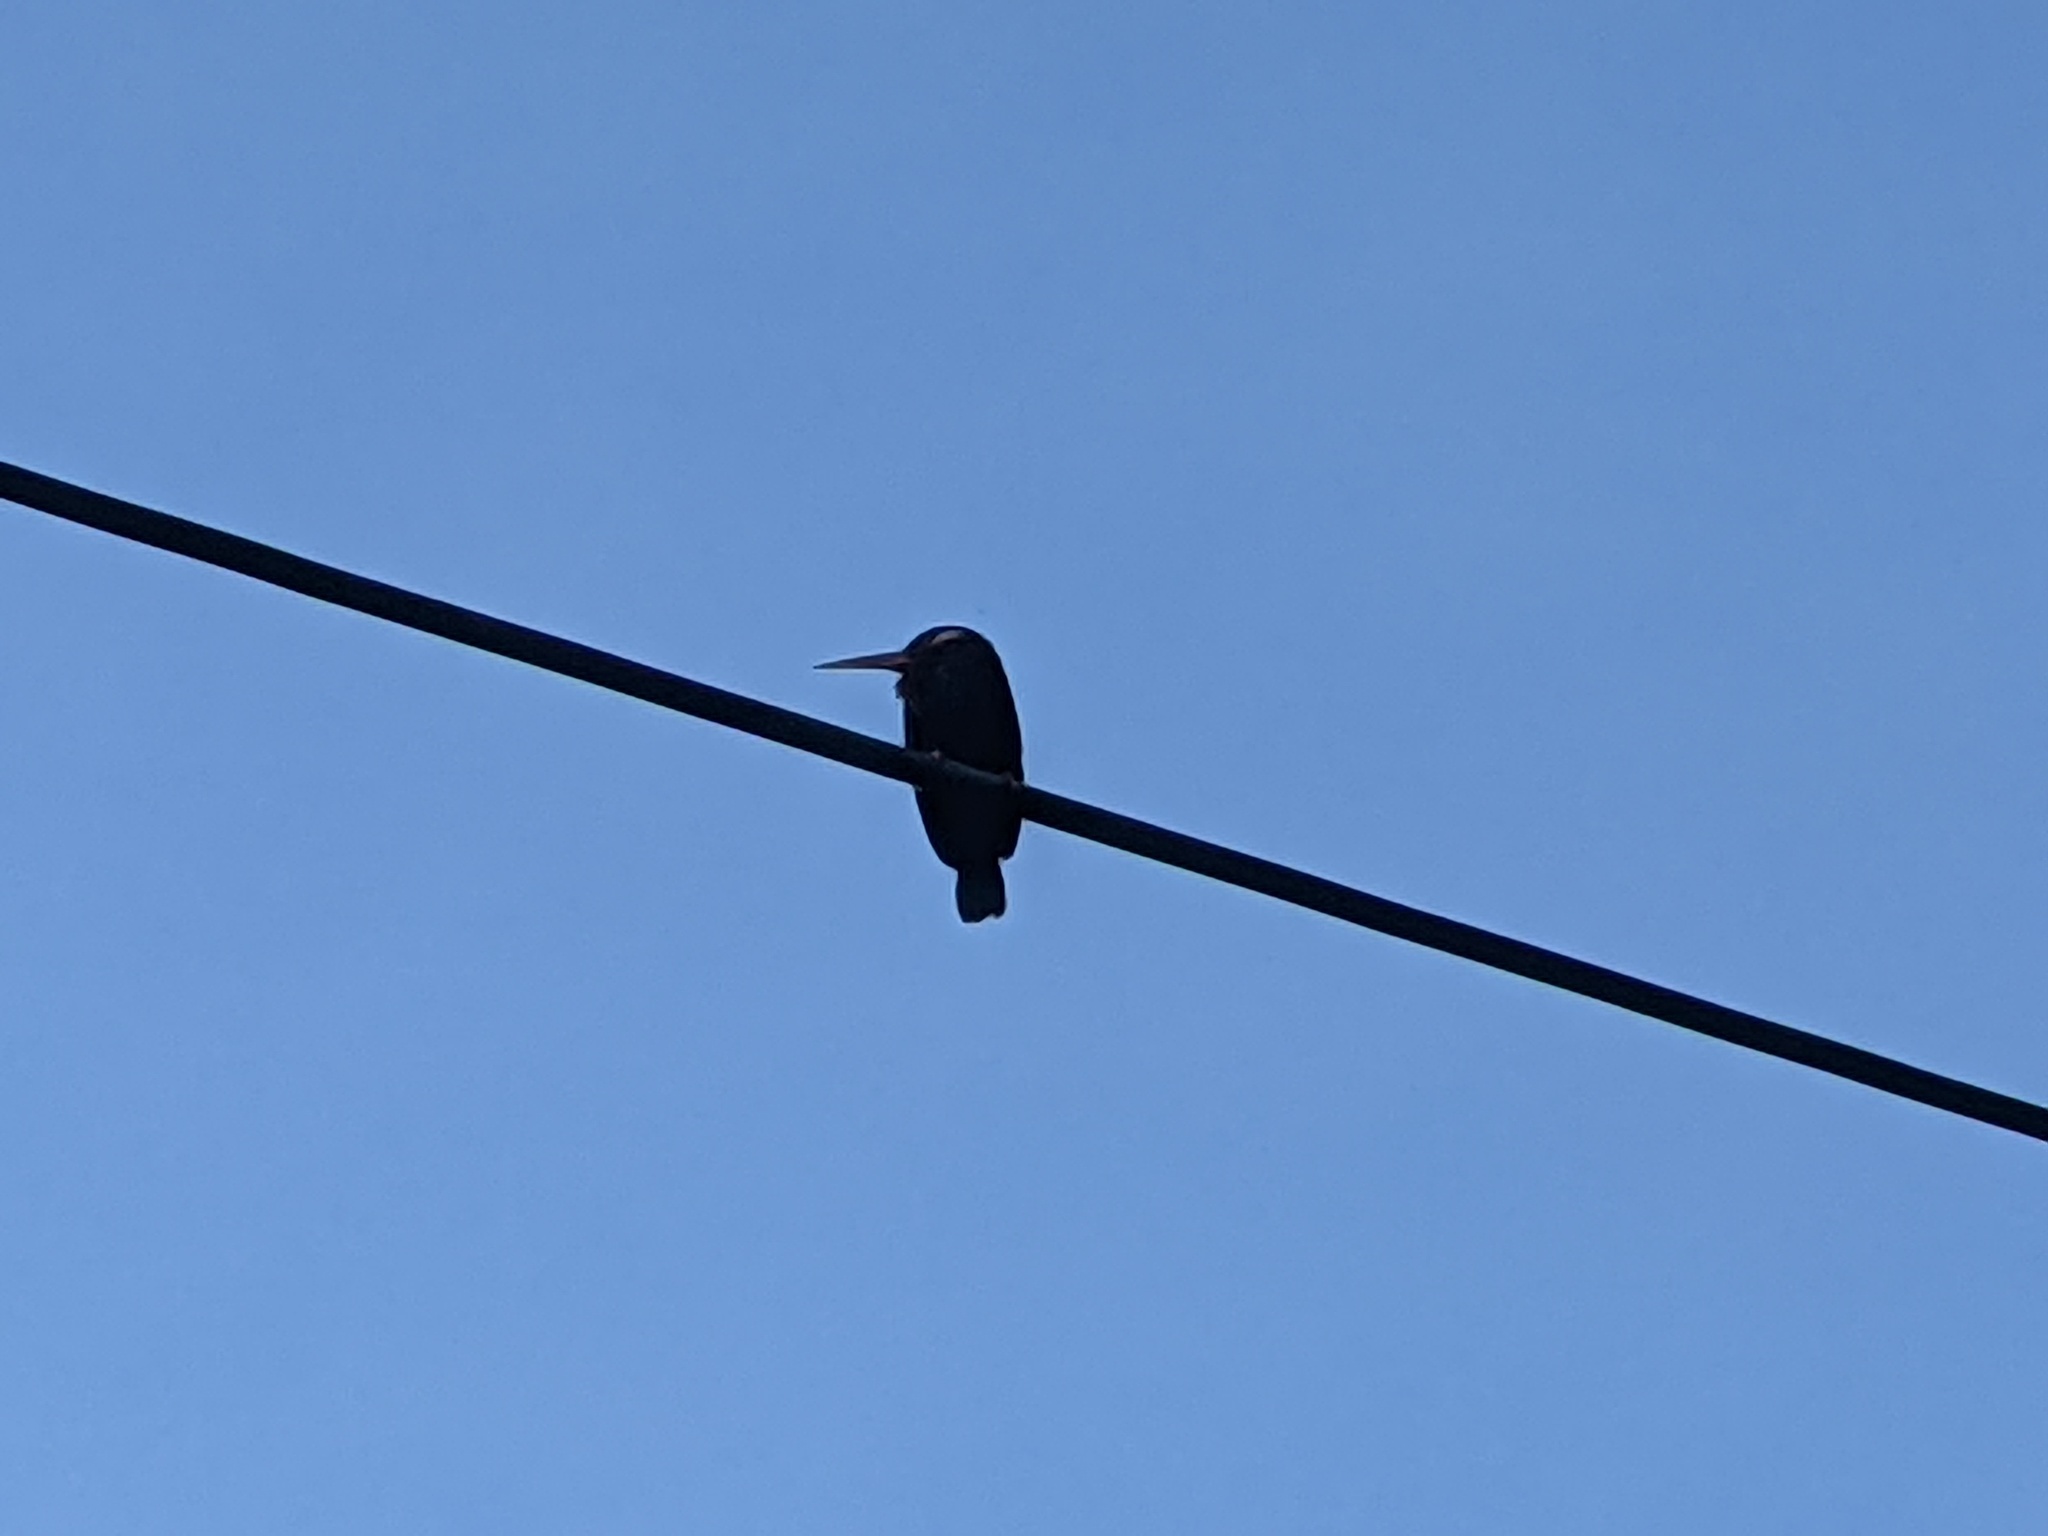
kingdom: Animalia
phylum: Chordata
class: Aves
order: Piciformes
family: Galbulidae
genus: Galbalcyrhynchus
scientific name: Galbalcyrhynchus leucotis
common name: White-eared jacamar
